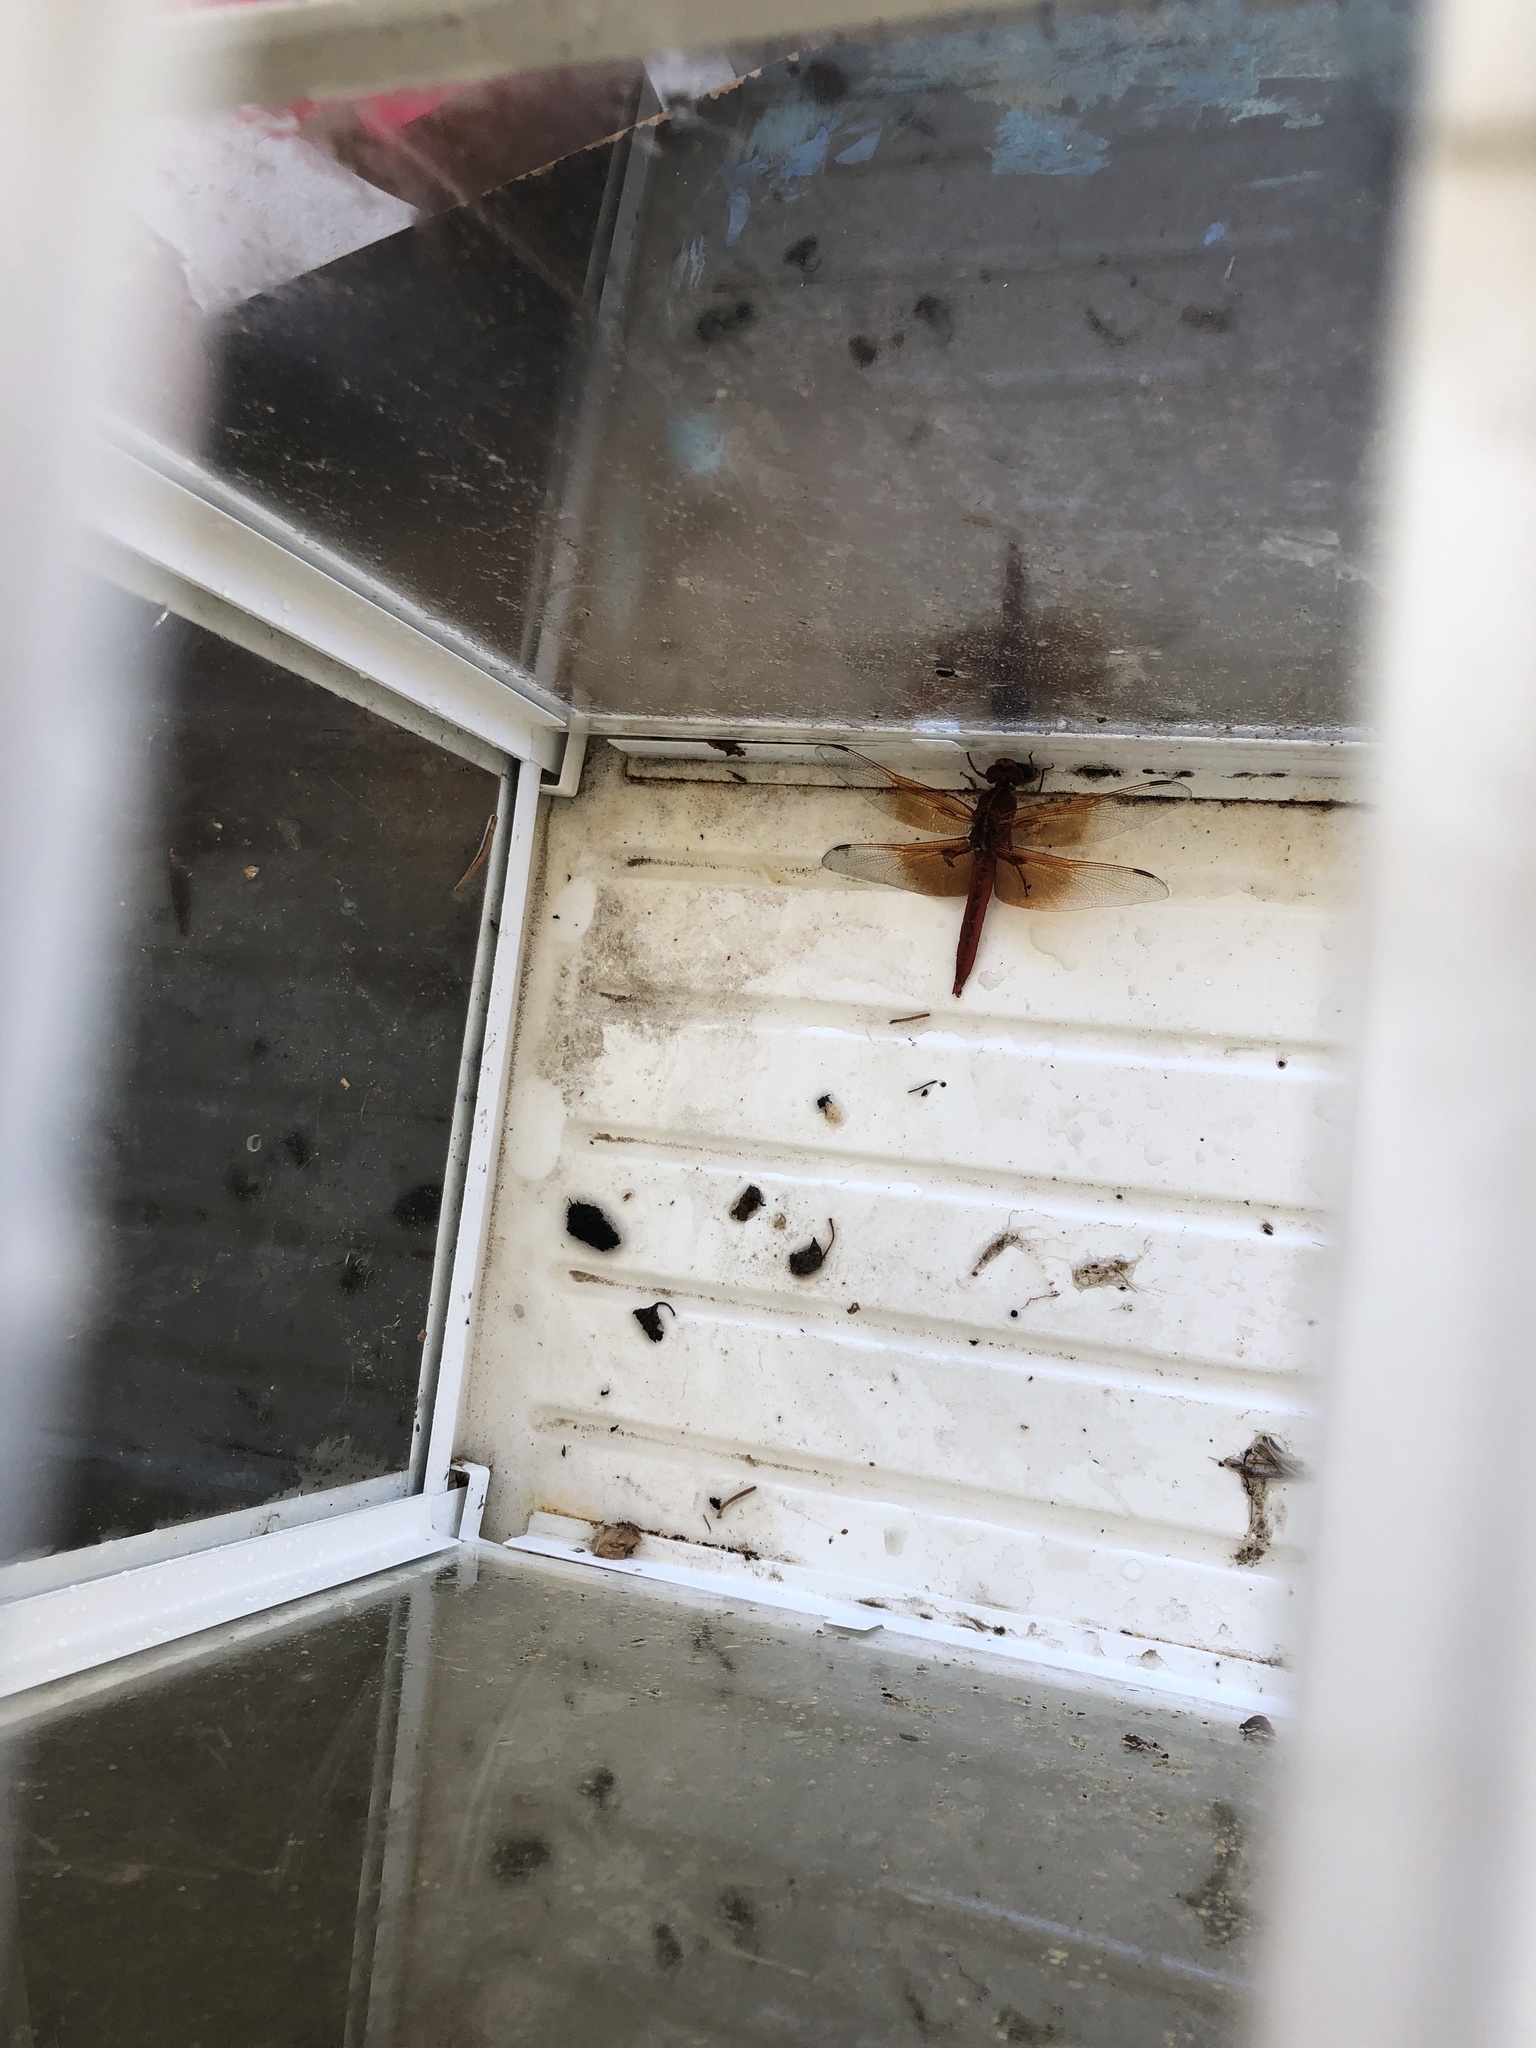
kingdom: Animalia
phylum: Arthropoda
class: Insecta
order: Odonata
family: Libellulidae
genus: Libellula
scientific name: Libellula saturata
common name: Flame skimmer
